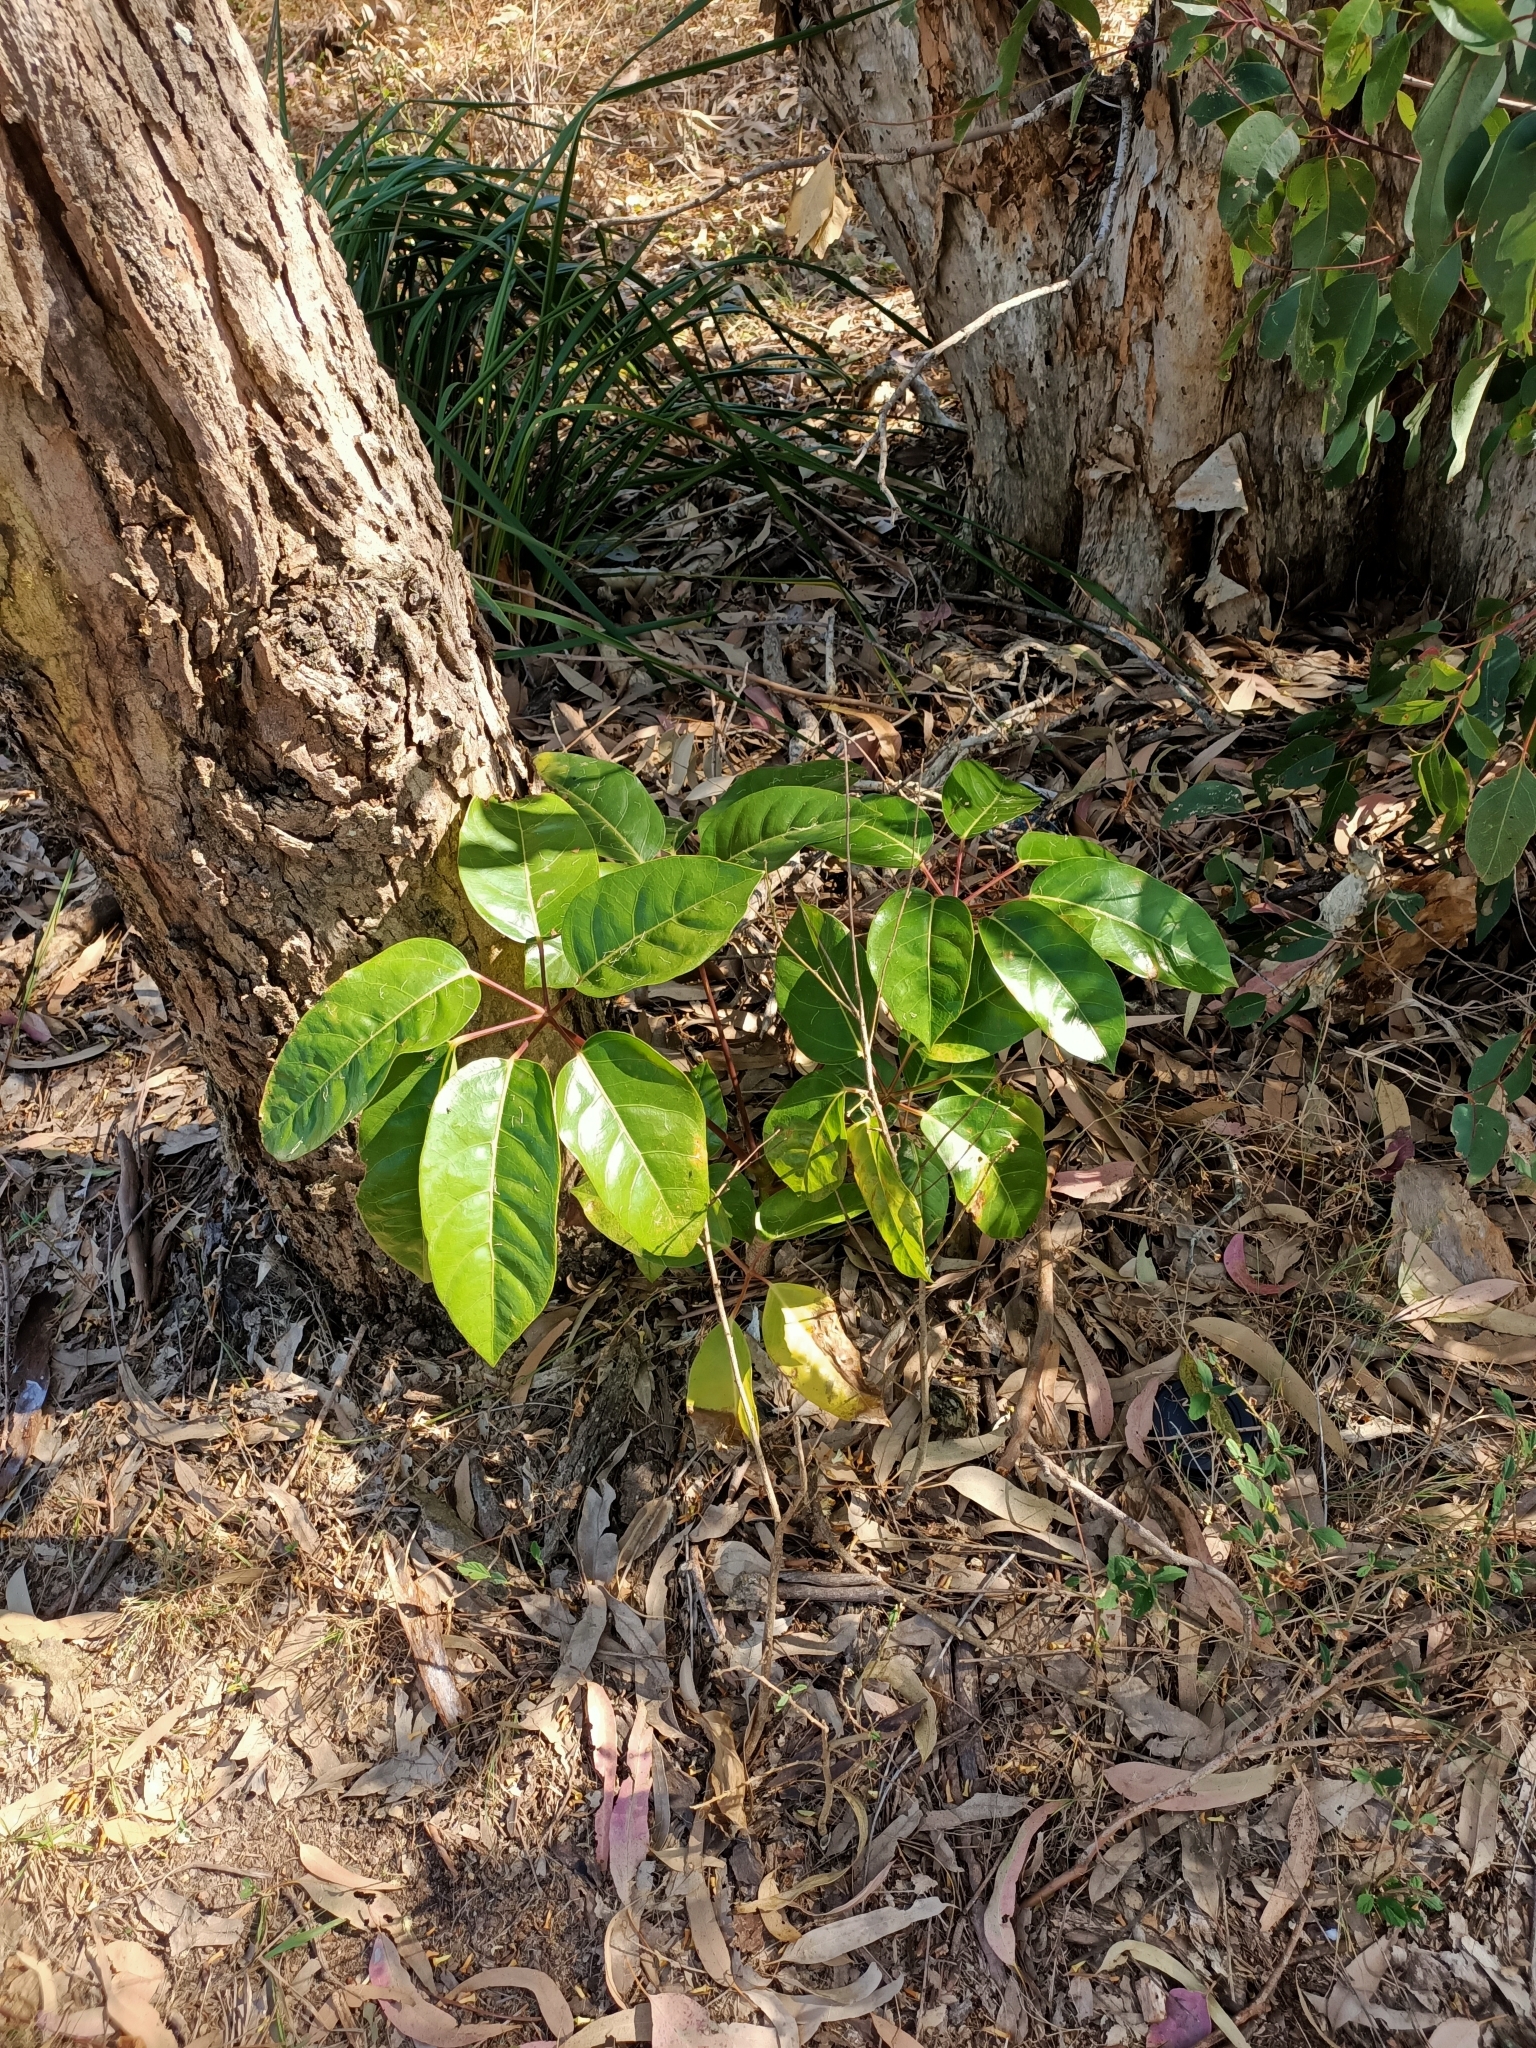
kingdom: Plantae
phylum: Tracheophyta
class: Magnoliopsida
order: Apiales
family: Araliaceae
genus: Heptapleurum
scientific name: Heptapleurum actinophyllum
